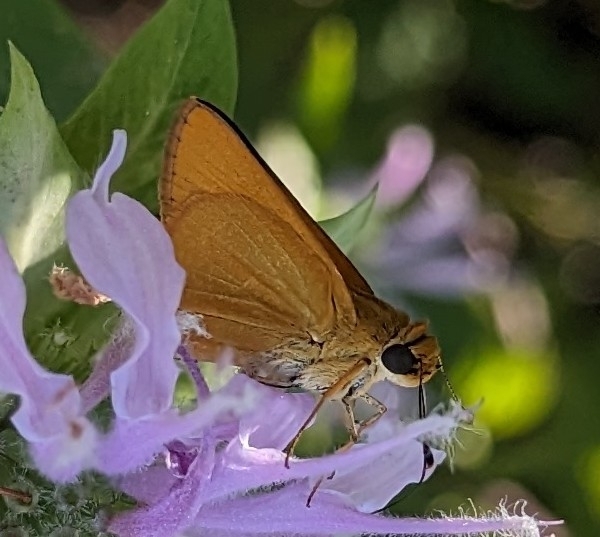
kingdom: Animalia
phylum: Arthropoda
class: Insecta
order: Lepidoptera
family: Hesperiidae
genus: Atrytone
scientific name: Atrytone delaware
